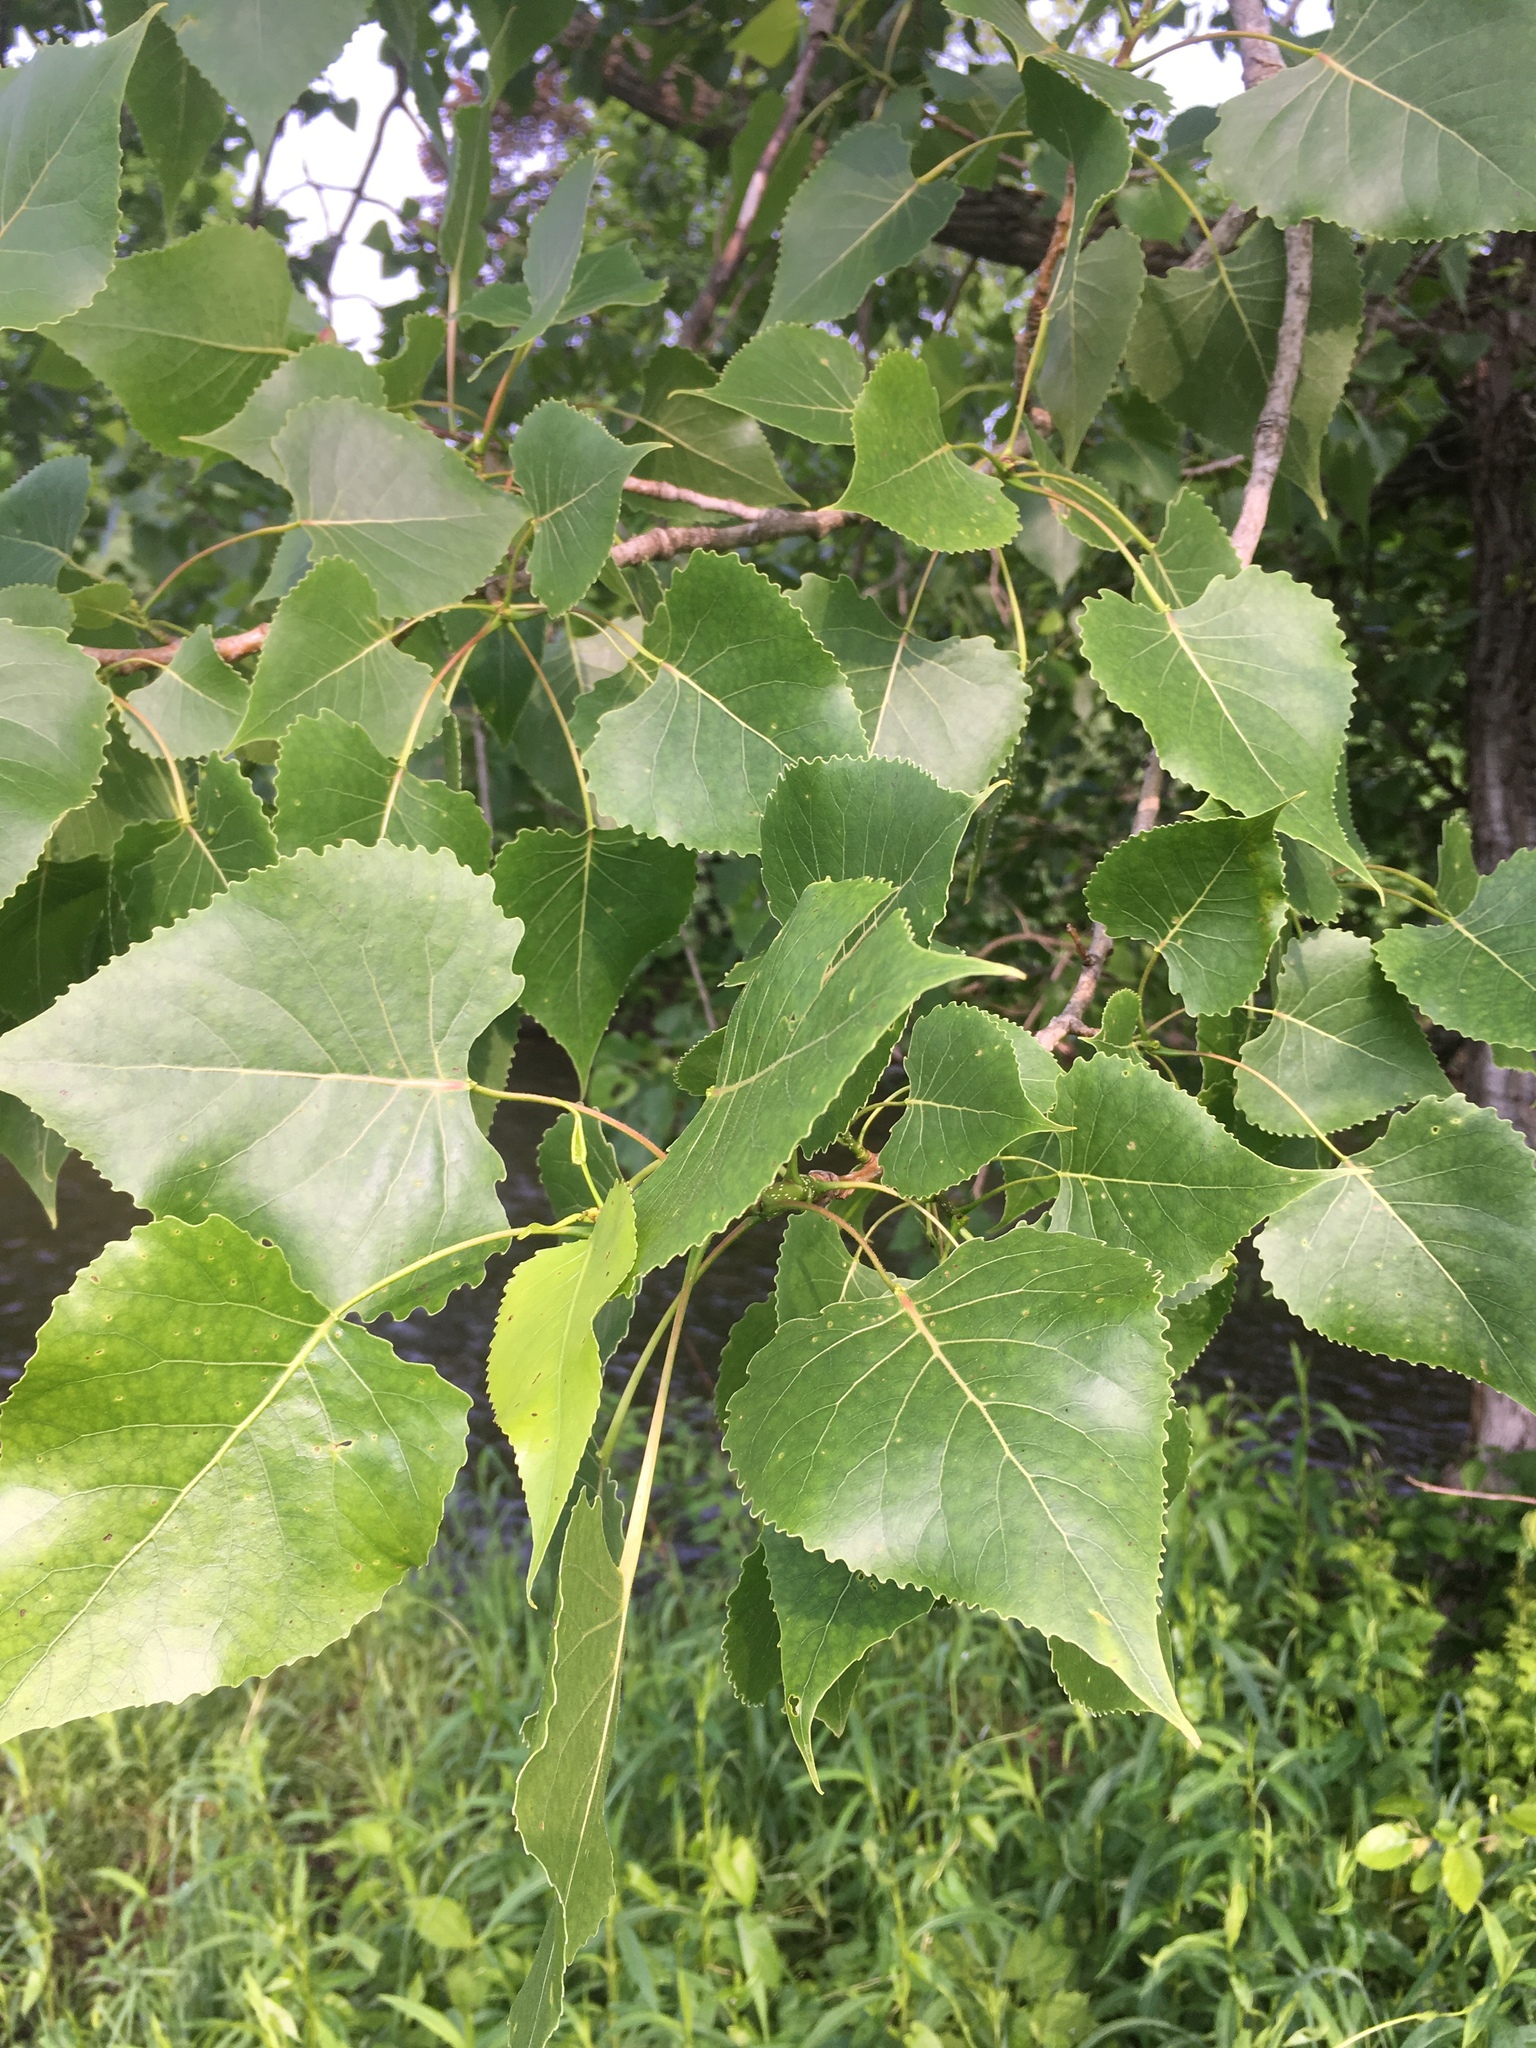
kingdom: Plantae
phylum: Tracheophyta
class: Magnoliopsida
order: Malpighiales
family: Salicaceae
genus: Populus
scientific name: Populus deltoides
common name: Eastern cottonwood
